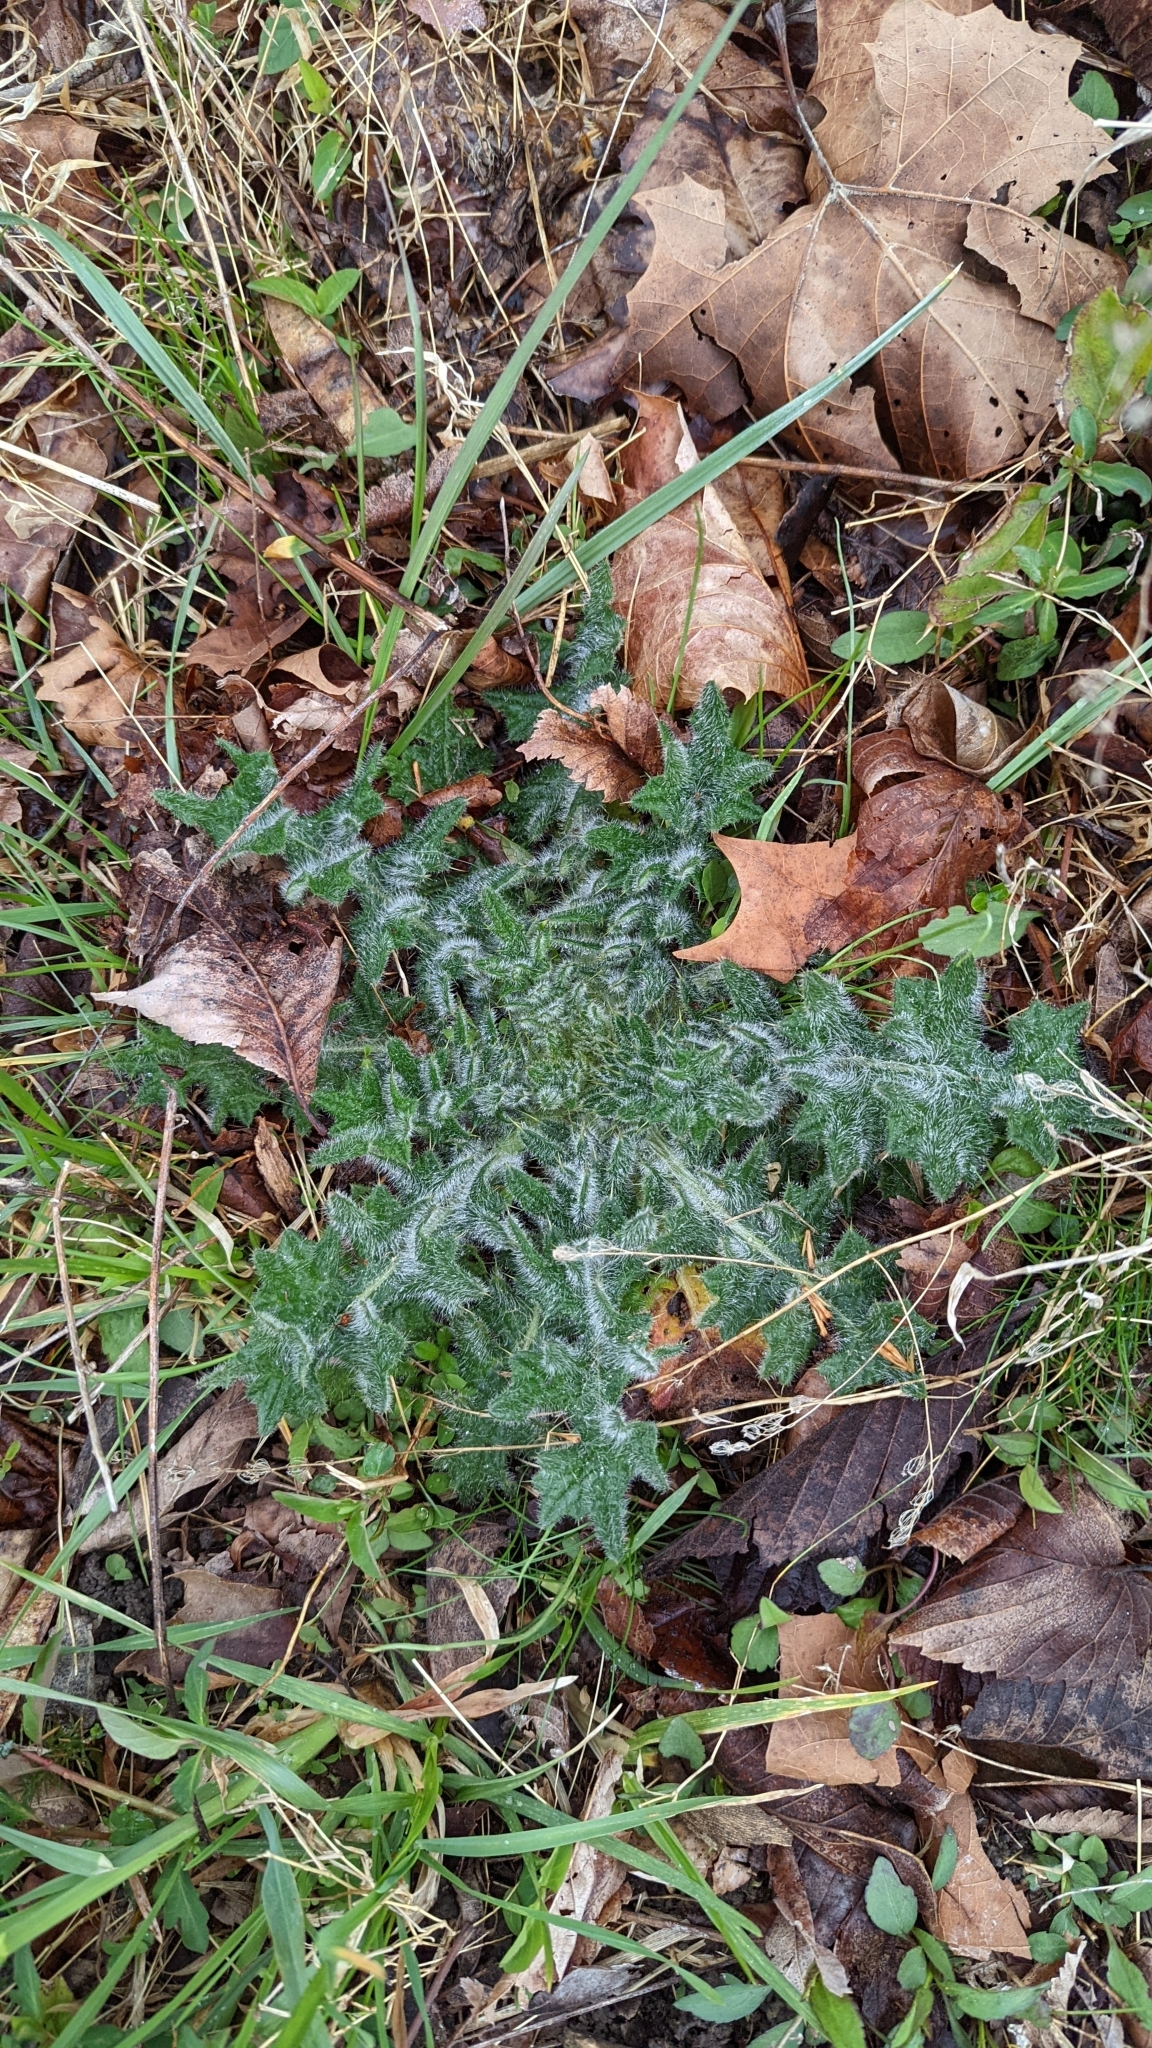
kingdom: Plantae
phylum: Tracheophyta
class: Magnoliopsida
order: Asterales
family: Asteraceae
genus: Cirsium
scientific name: Cirsium vulgare
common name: Bull thistle
